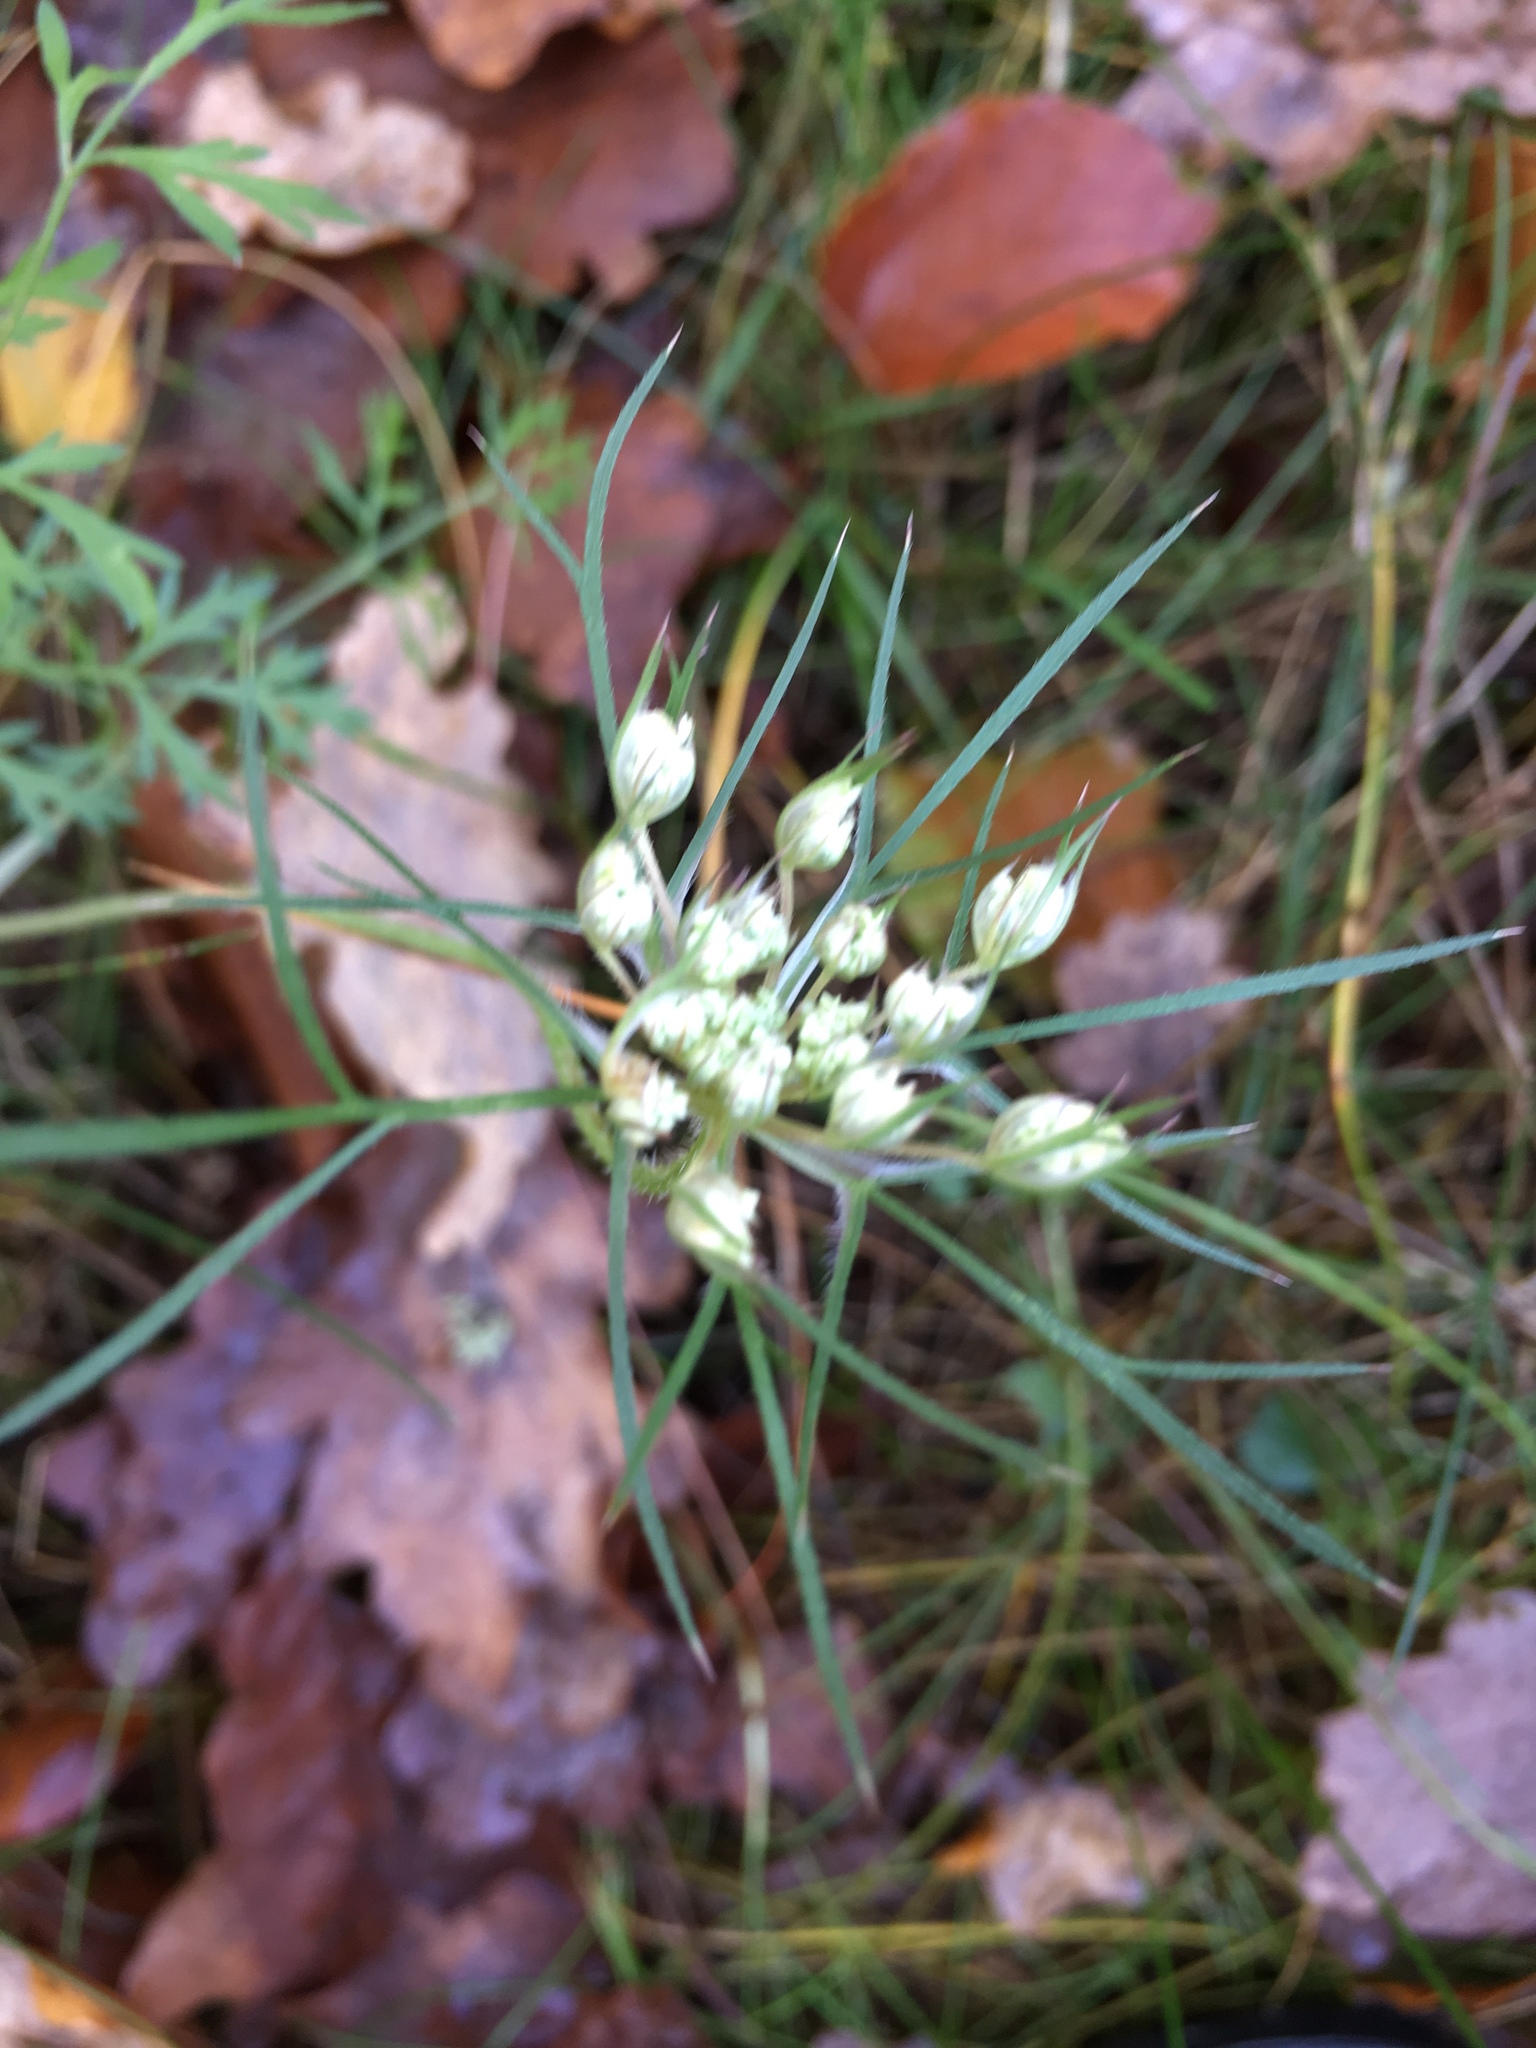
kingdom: Plantae
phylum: Tracheophyta
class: Magnoliopsida
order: Apiales
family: Apiaceae
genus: Daucus
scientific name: Daucus carota
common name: Wild carrot
